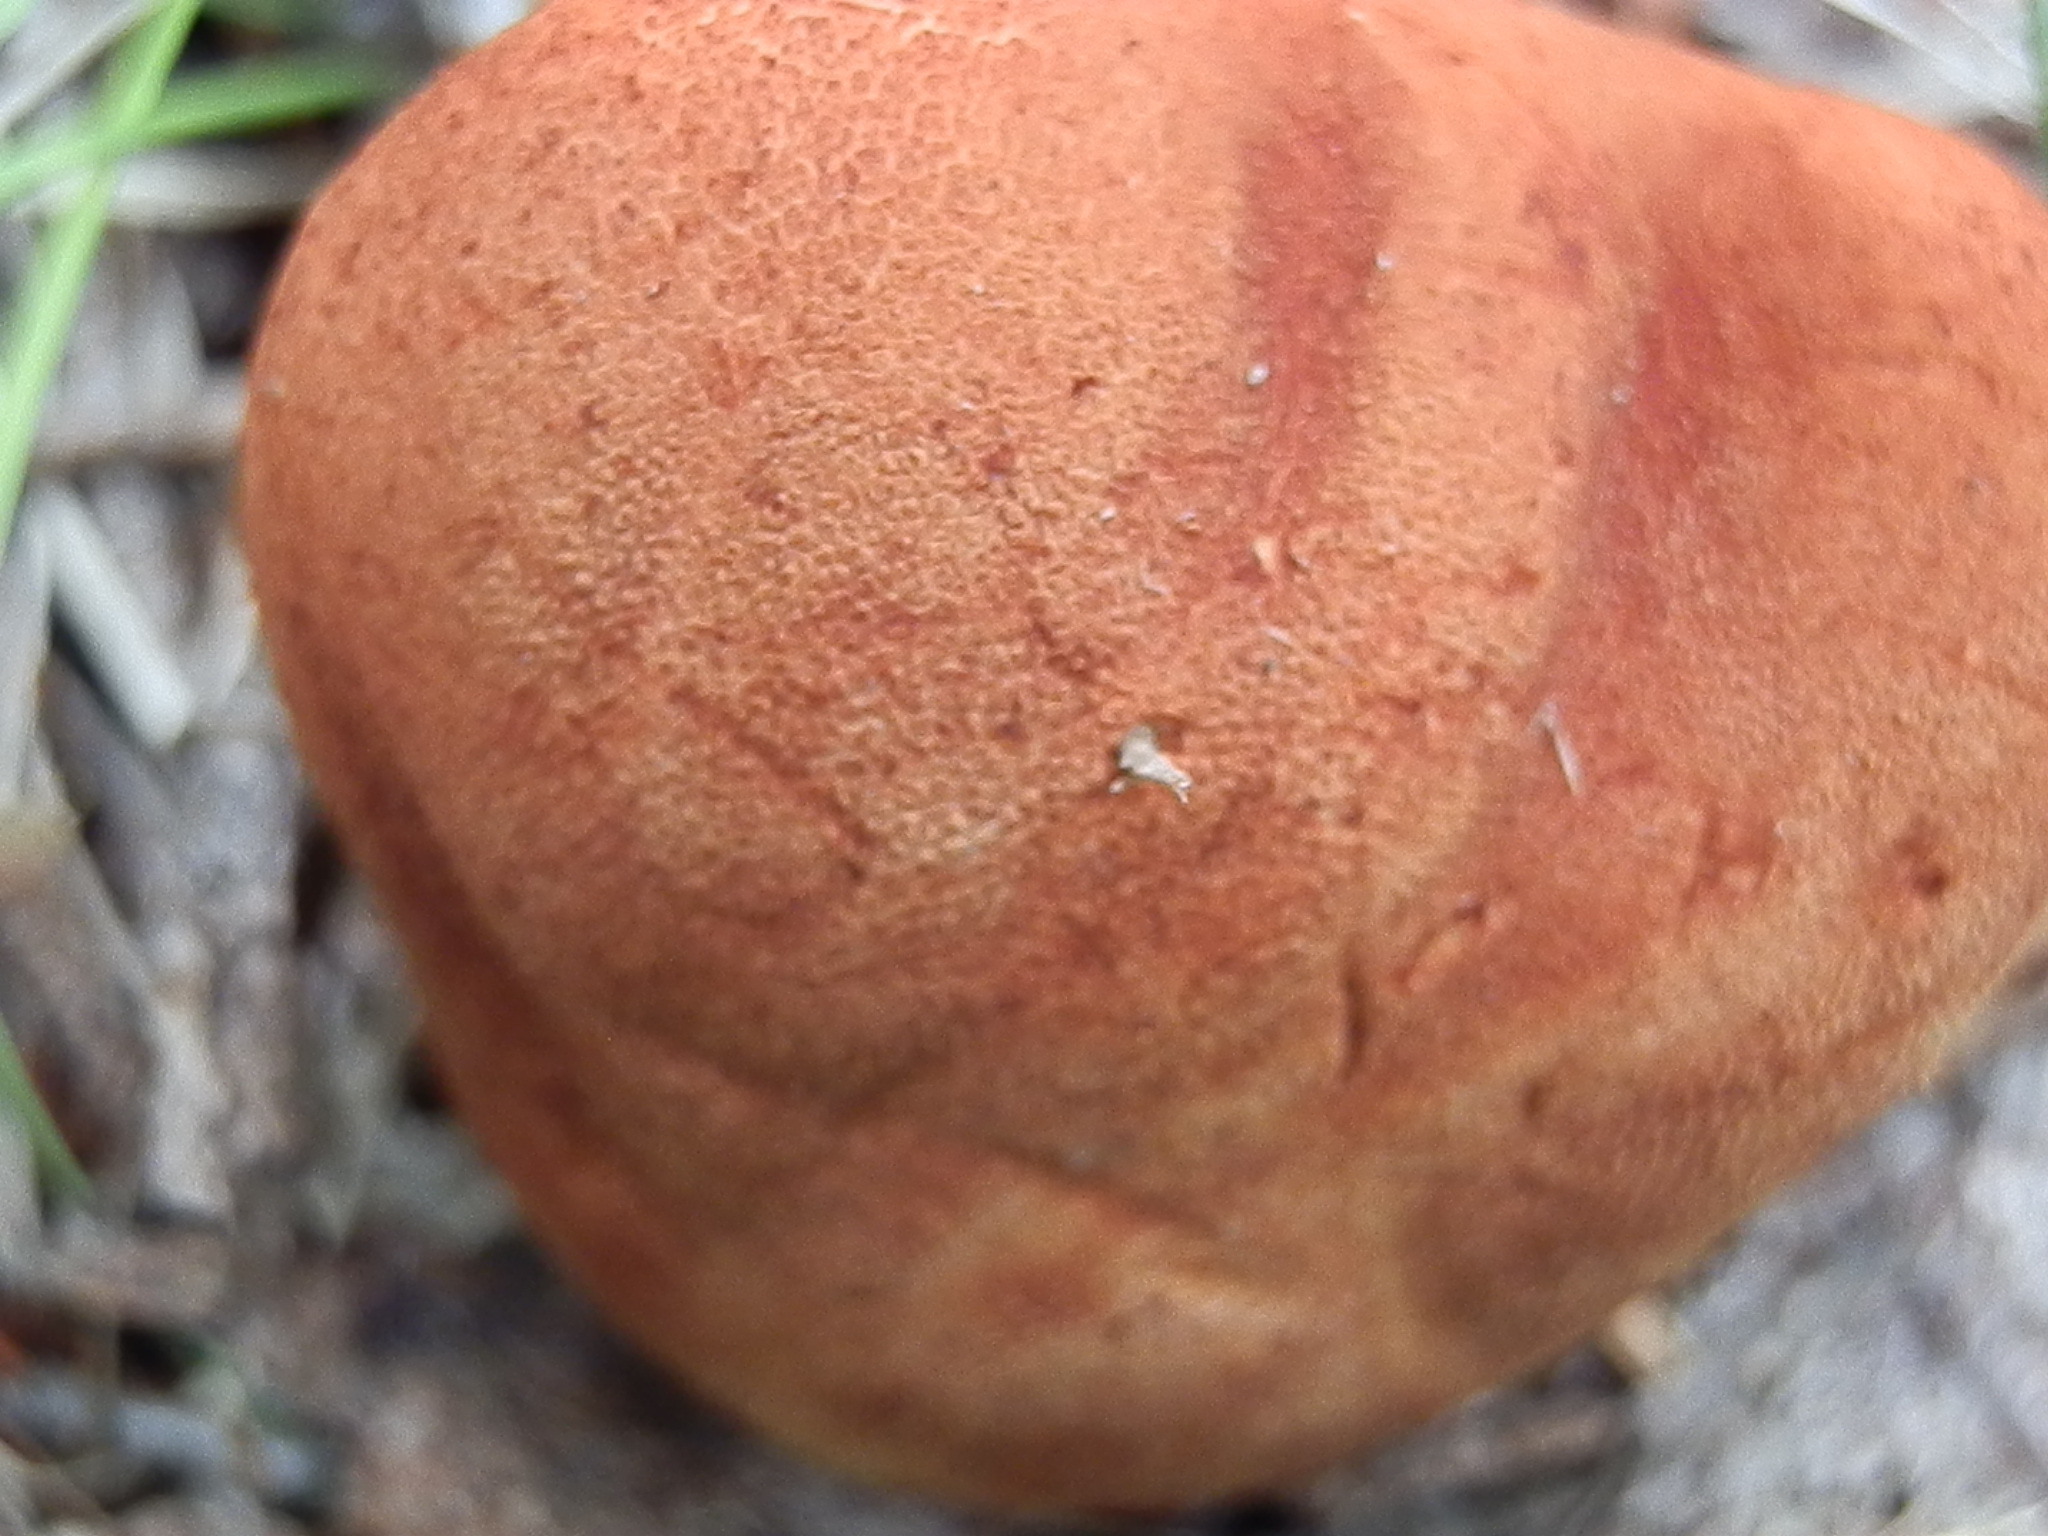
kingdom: Fungi
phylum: Basidiomycota
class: Agaricomycetes
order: Agaricales
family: Agaricaceae
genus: Cystodermella
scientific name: Cystodermella cinnabarina
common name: Cinnabar powdercap
